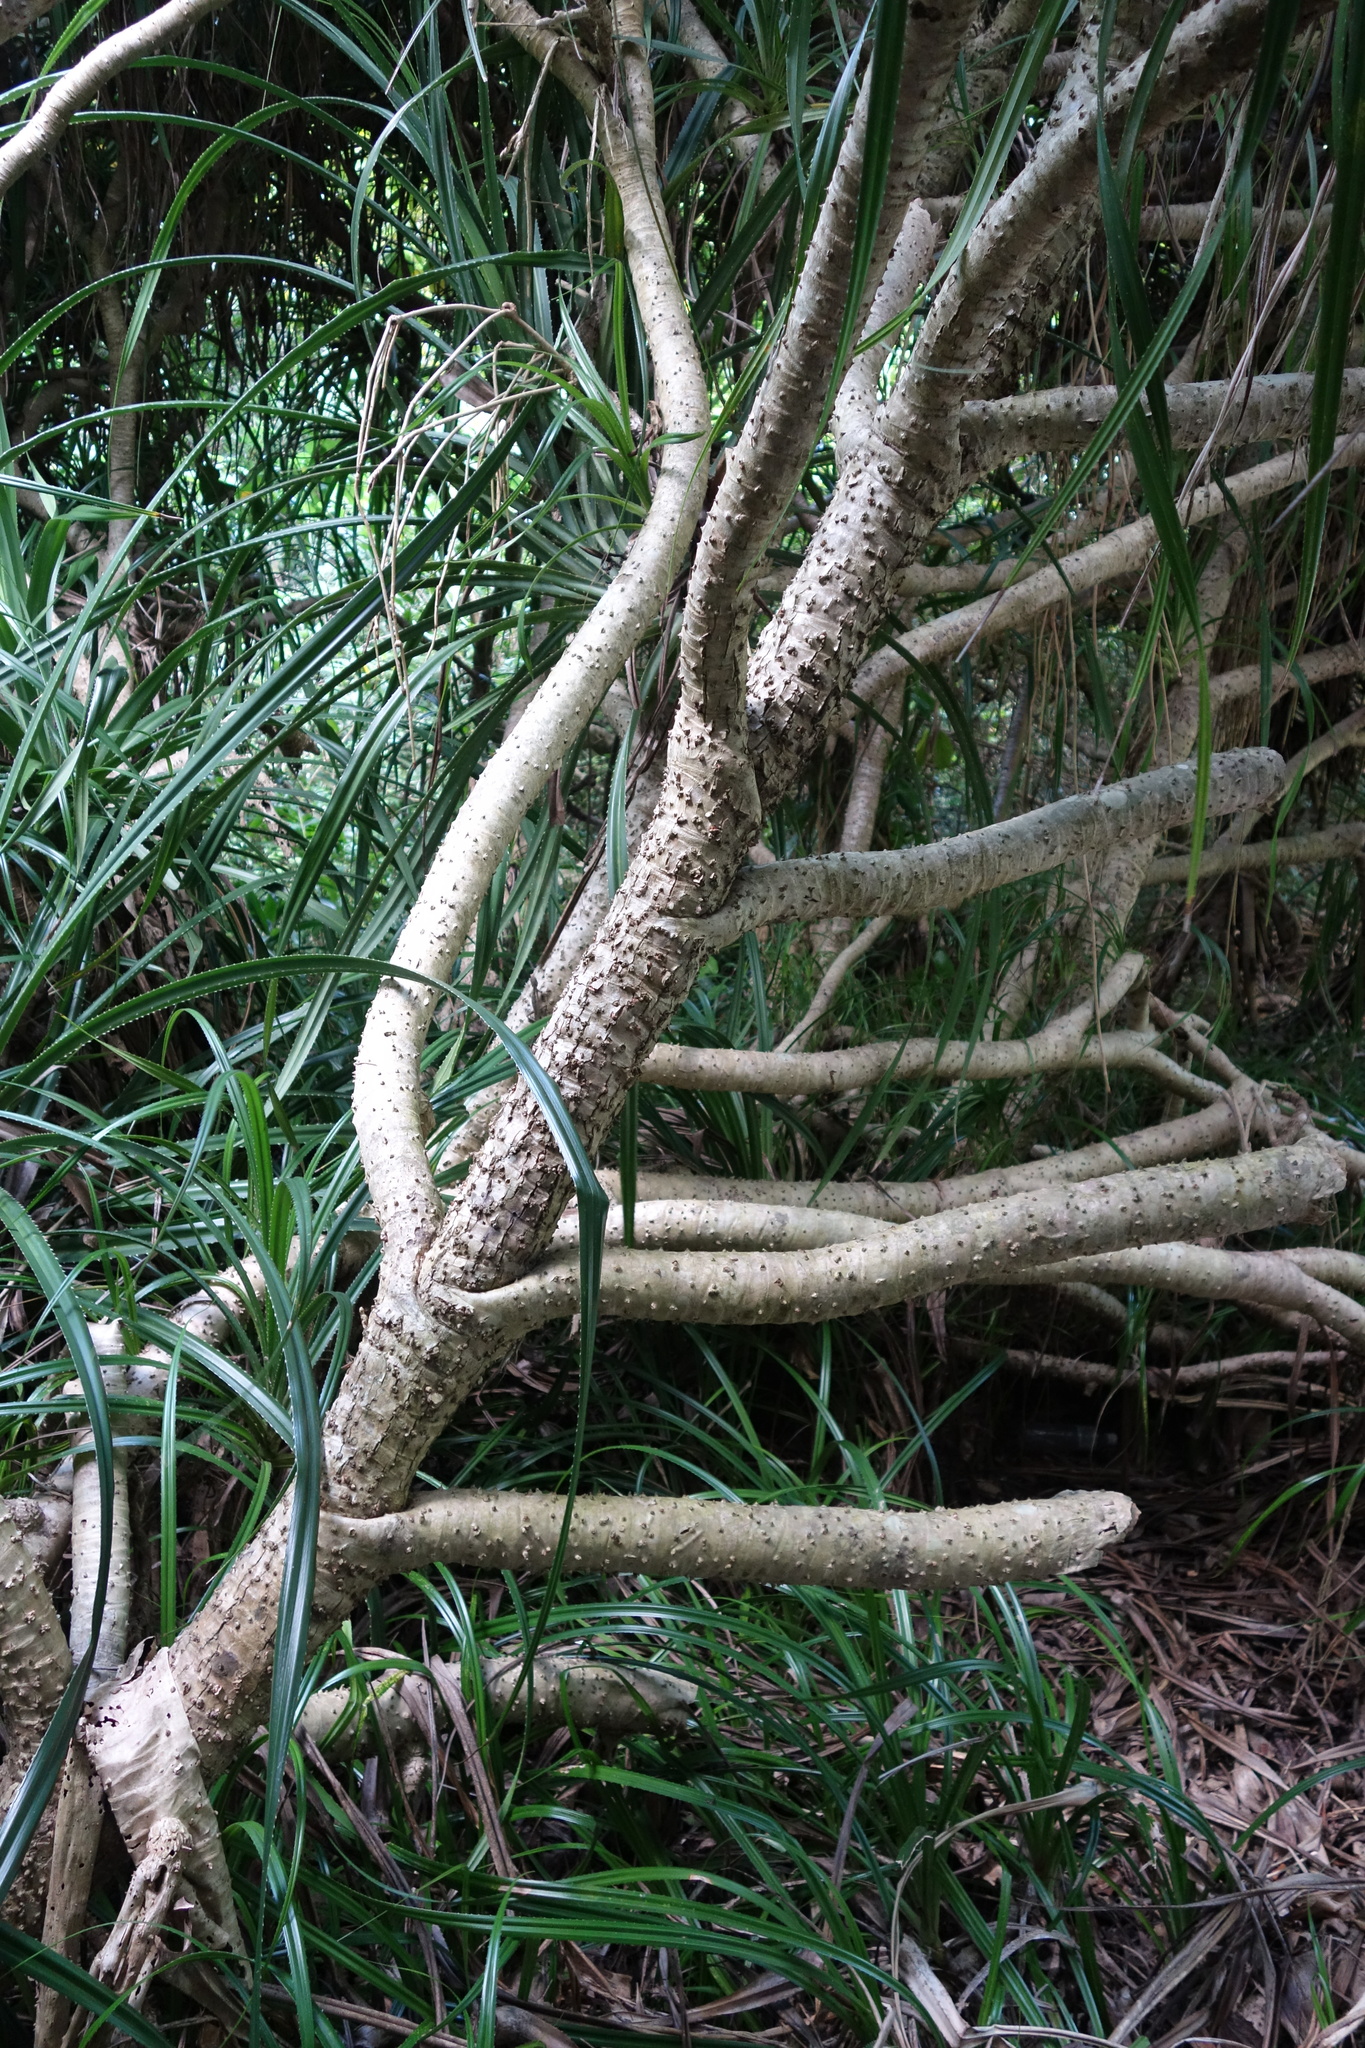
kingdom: Plantae
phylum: Tracheophyta
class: Liliopsida
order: Pandanales
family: Pandanaceae
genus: Pandanus
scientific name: Pandanus odorifer
